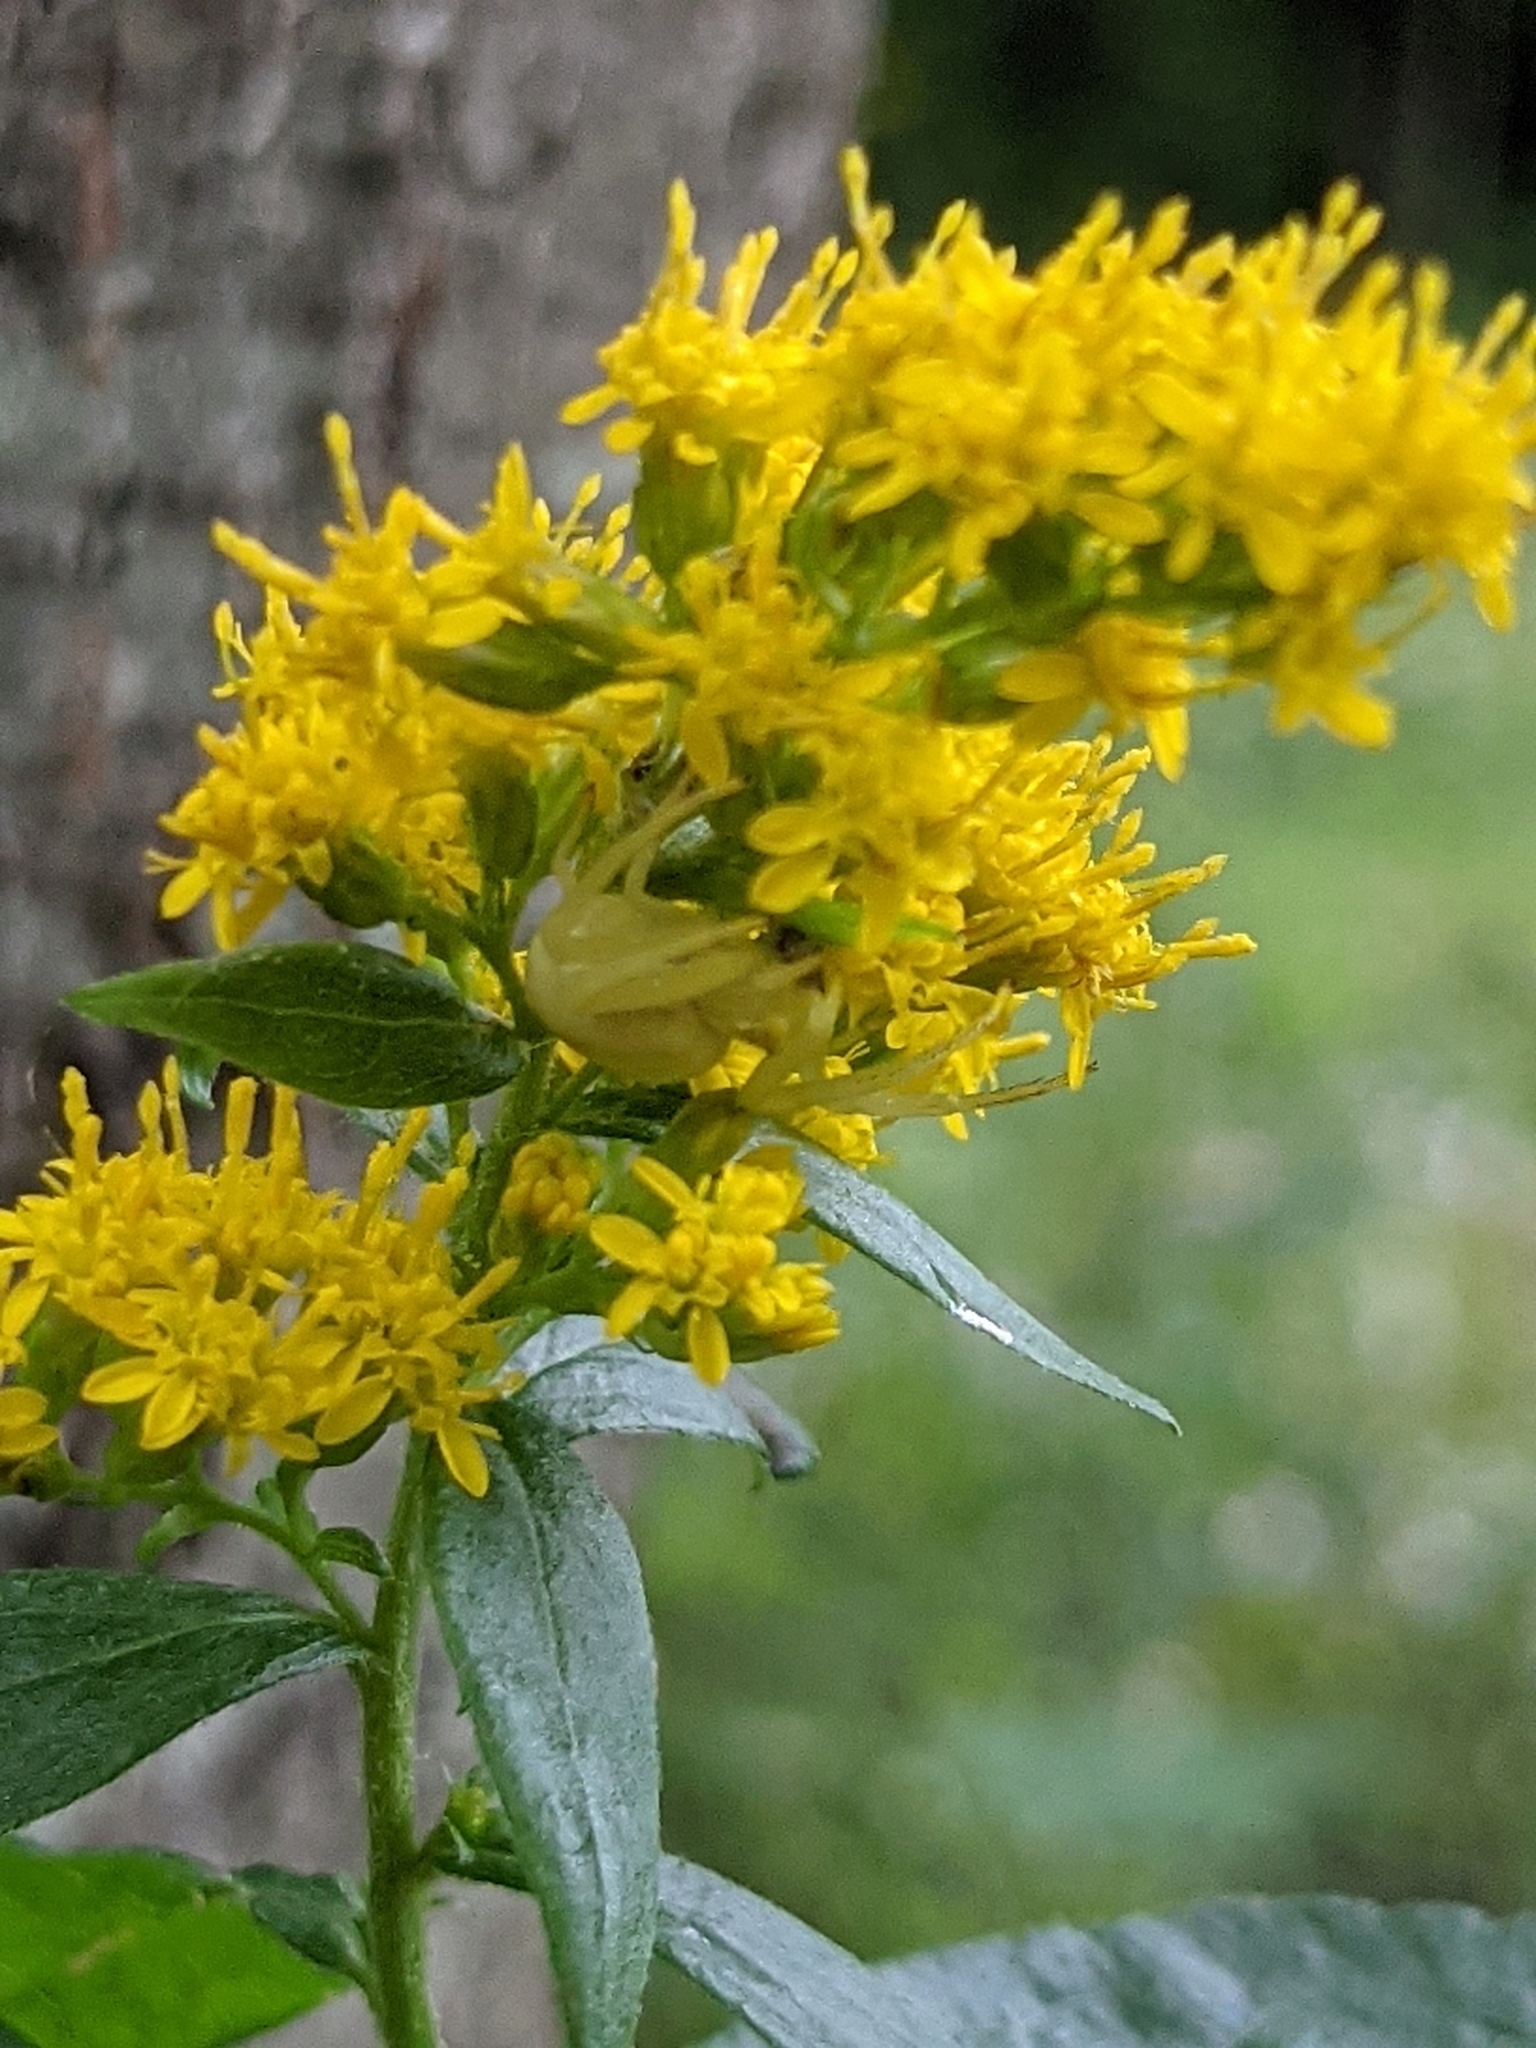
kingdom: Animalia
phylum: Arthropoda
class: Arachnida
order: Araneae
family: Thomisidae
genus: Misumena
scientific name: Misumena vatia
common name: Goldenrod crab spider
